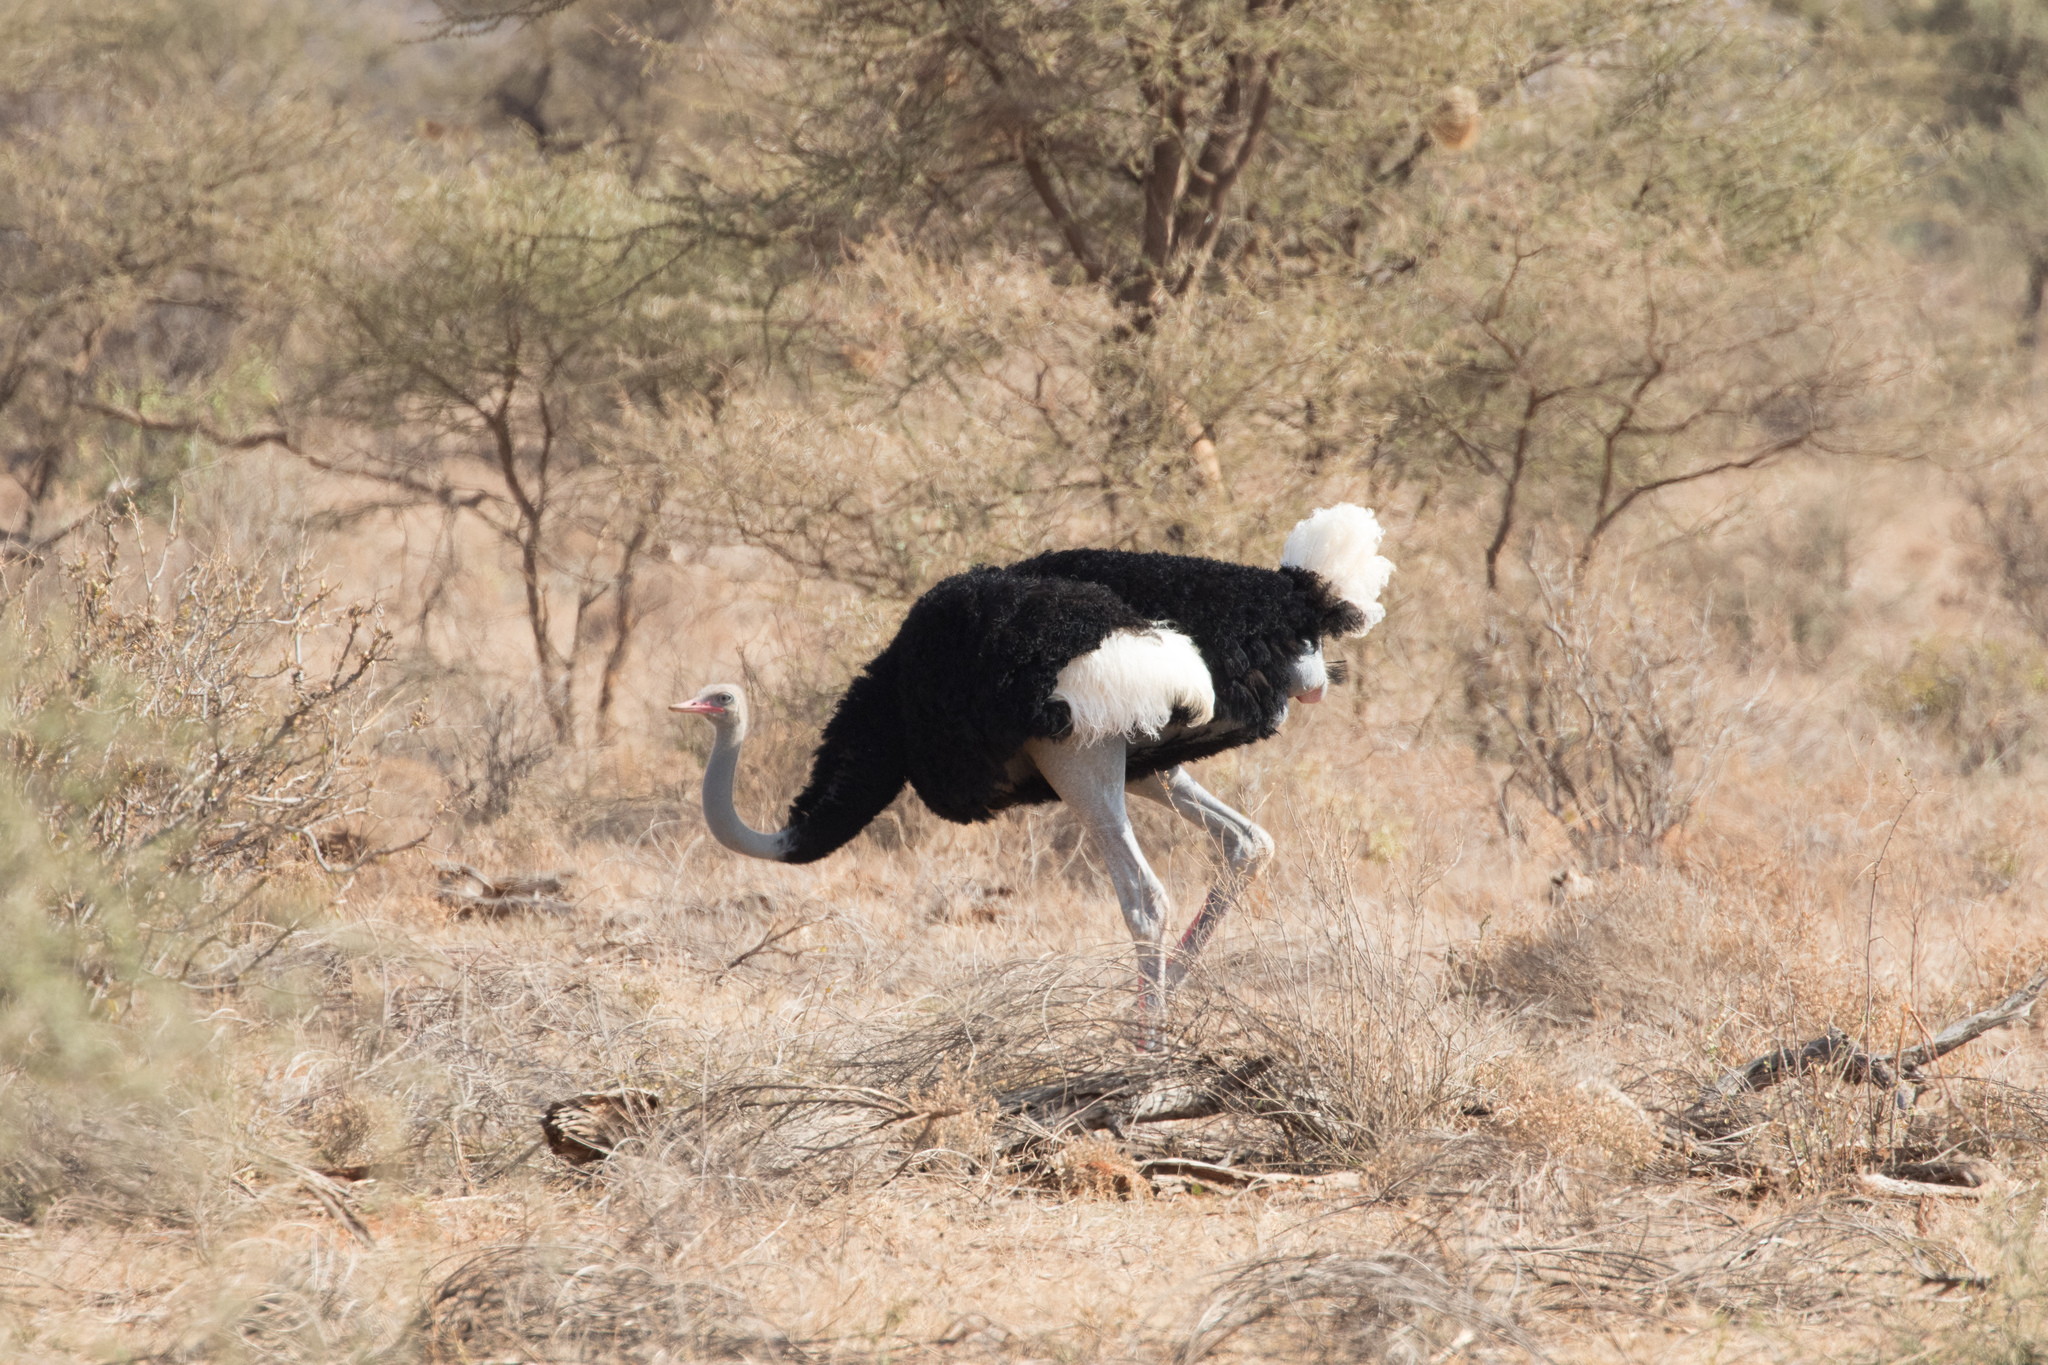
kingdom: Animalia
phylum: Chordata
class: Aves
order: Struthioniformes
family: Struthionidae
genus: Struthio
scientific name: Struthio molybdophanes
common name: Somali ostrich
